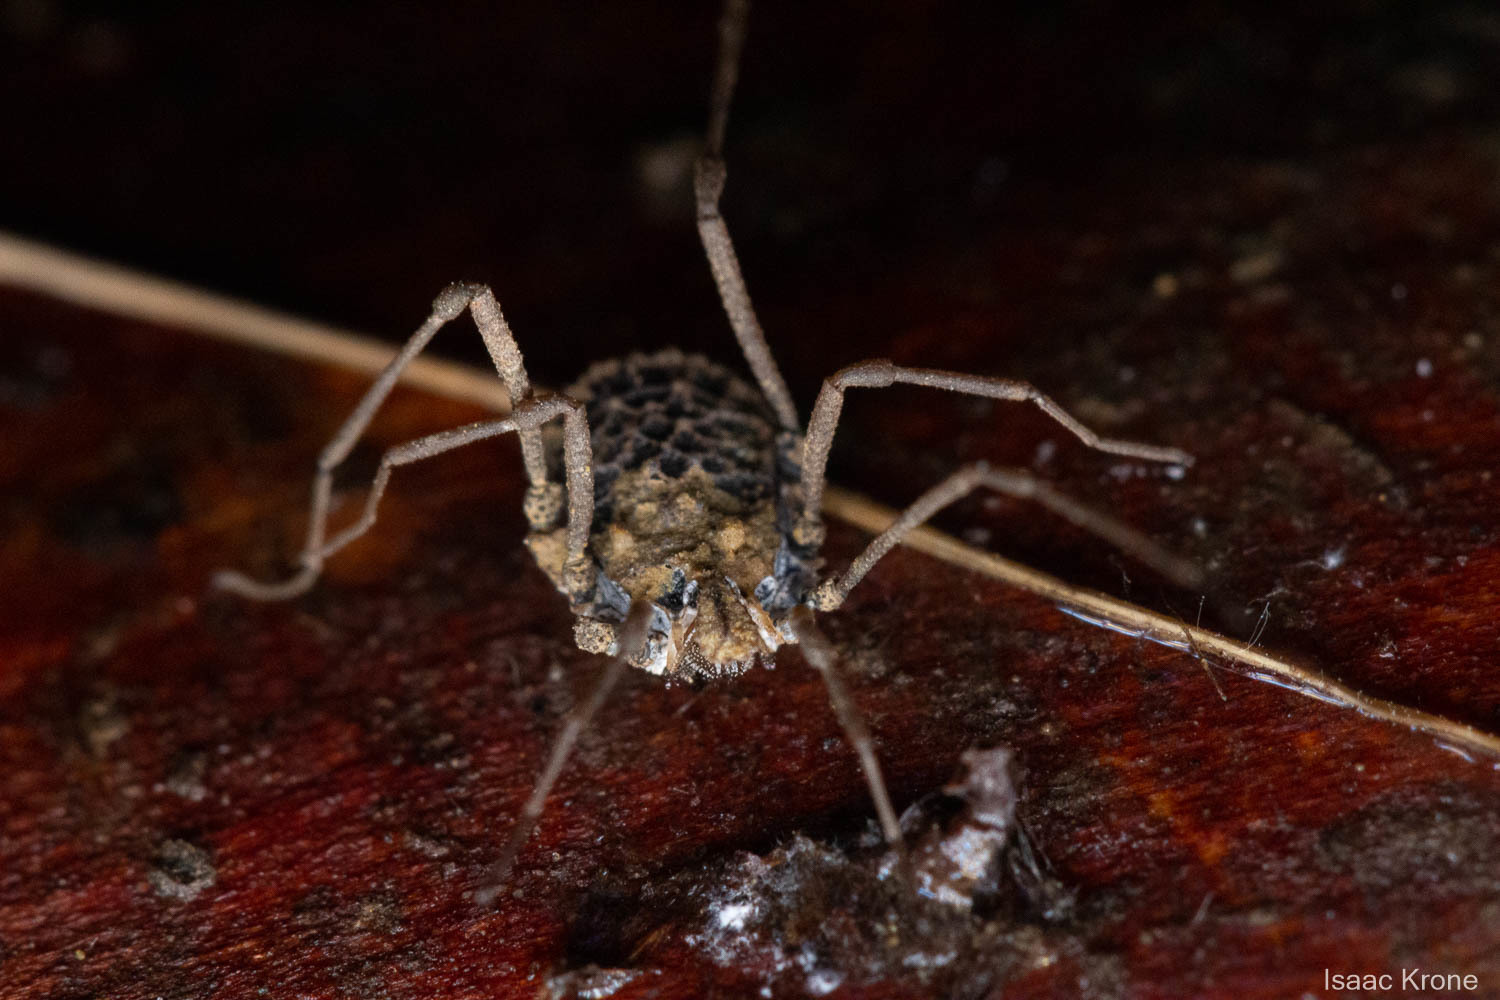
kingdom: Animalia
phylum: Arthropoda
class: Arachnida
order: Opiliones
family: Nemastomatidae
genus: Ortholasma
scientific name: Ortholasma rugosum
